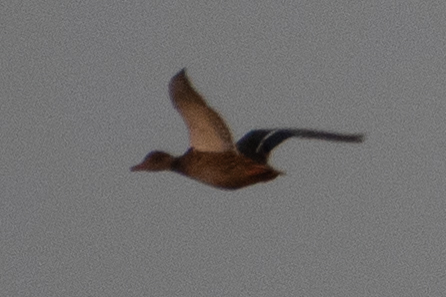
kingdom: Animalia
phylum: Chordata
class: Aves
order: Anseriformes
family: Anatidae
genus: Anas
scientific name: Anas platyrhynchos
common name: Mallard
